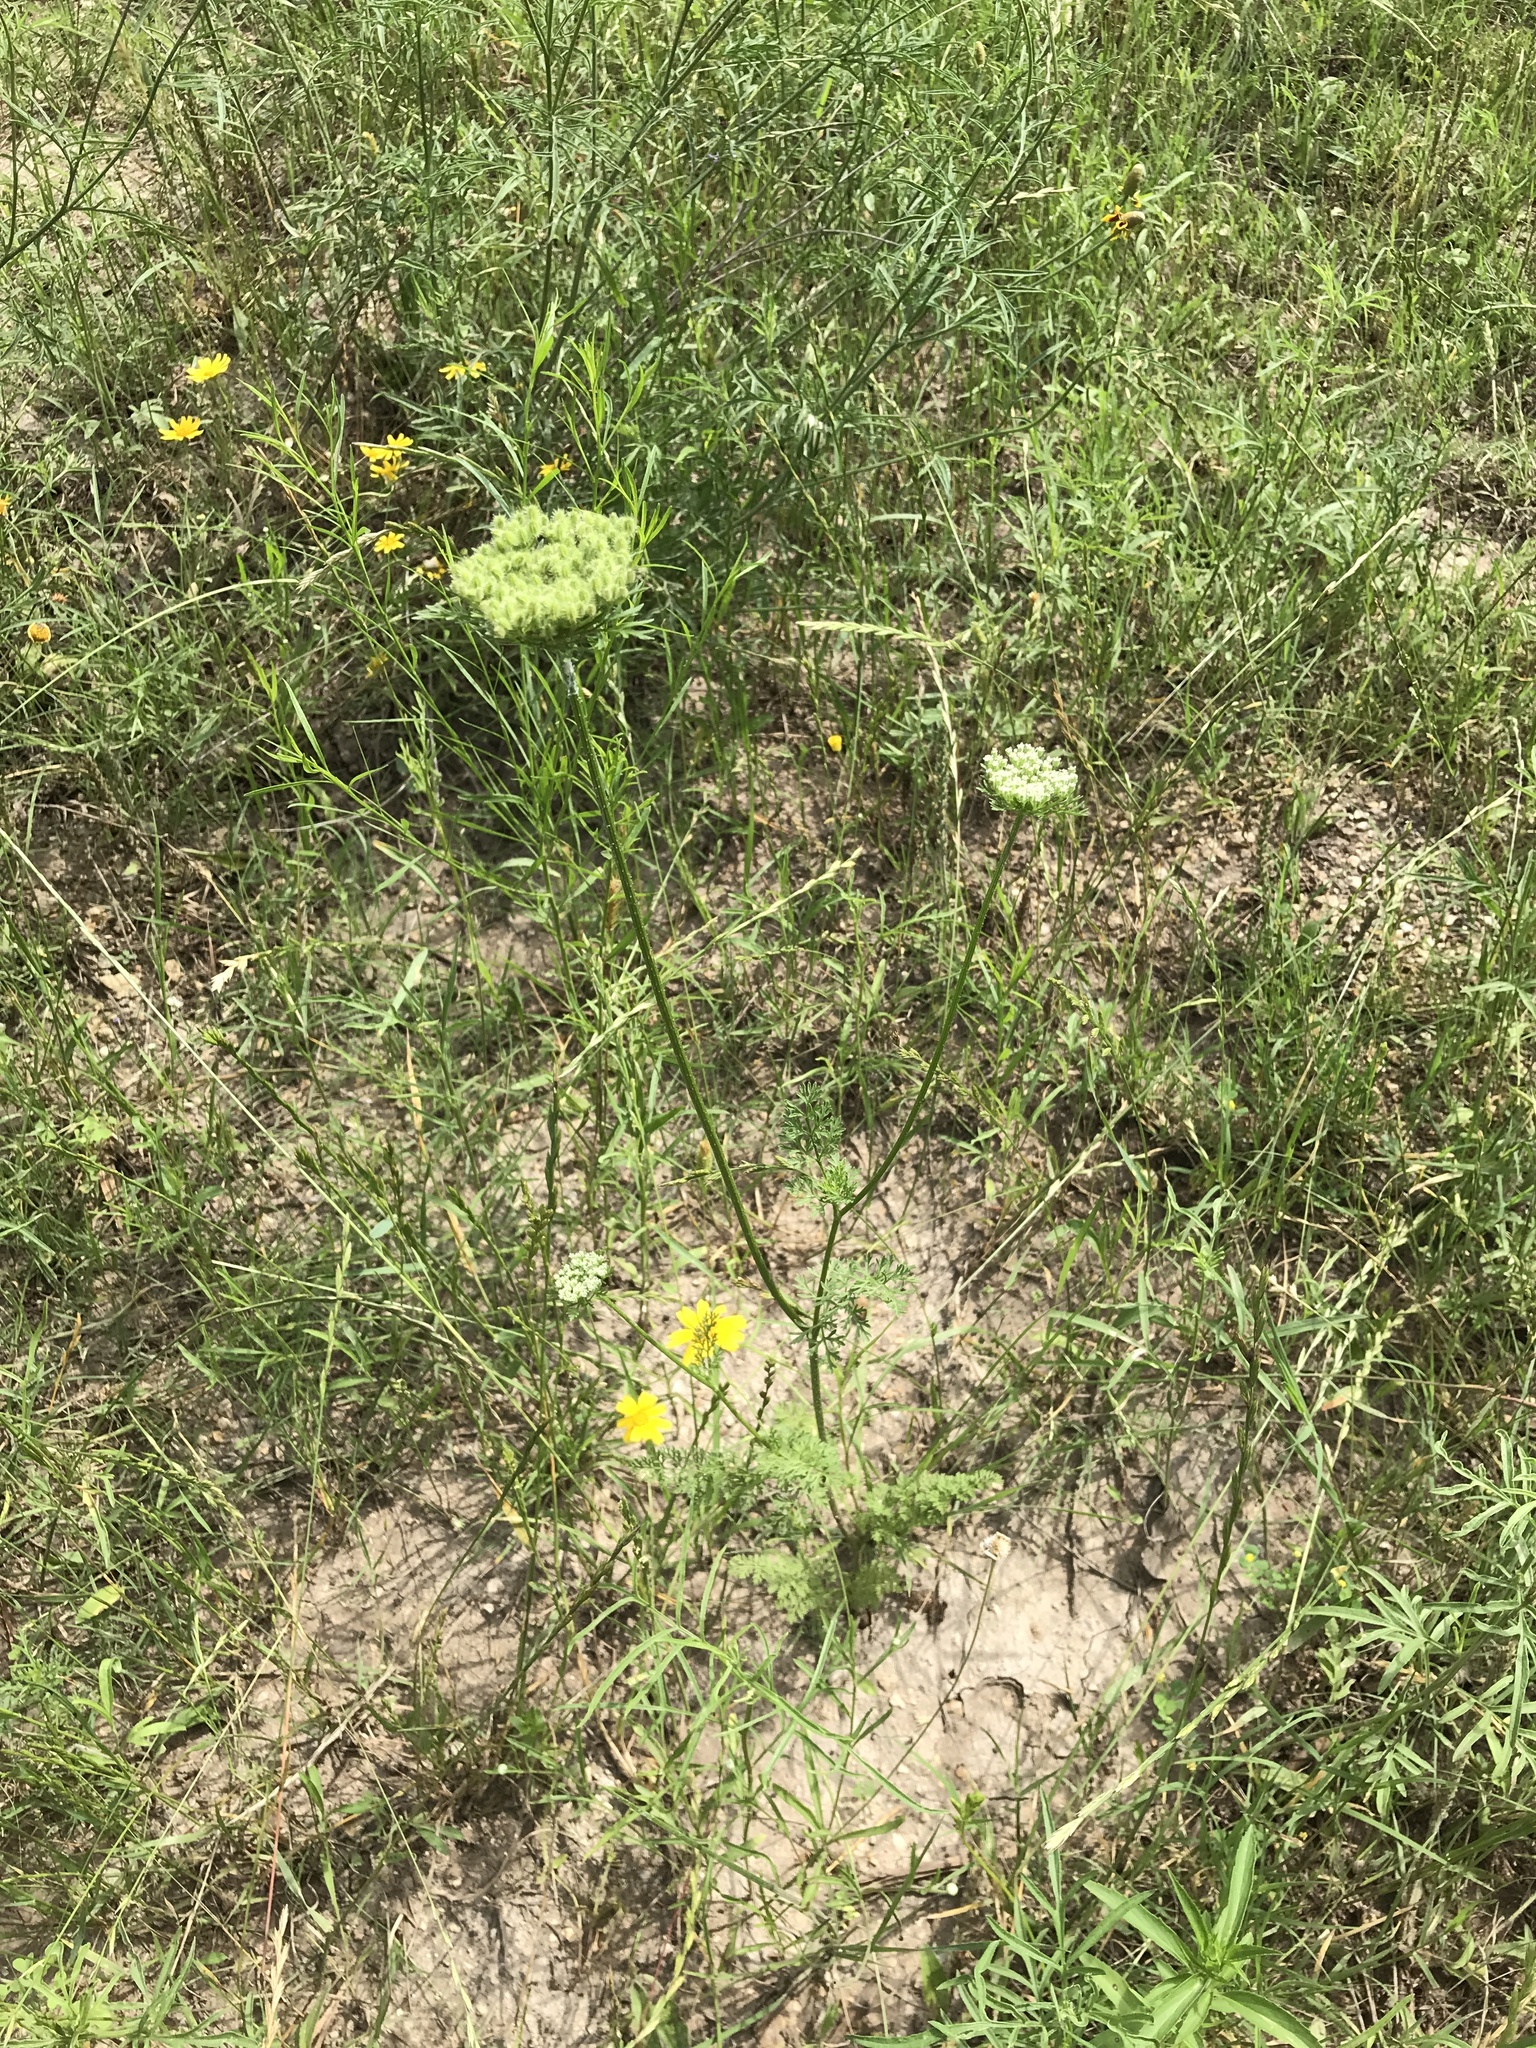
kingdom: Plantae
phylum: Tracheophyta
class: Magnoliopsida
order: Apiales
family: Apiaceae
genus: Daucus
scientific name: Daucus pusillus
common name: Southwest wild carrot
